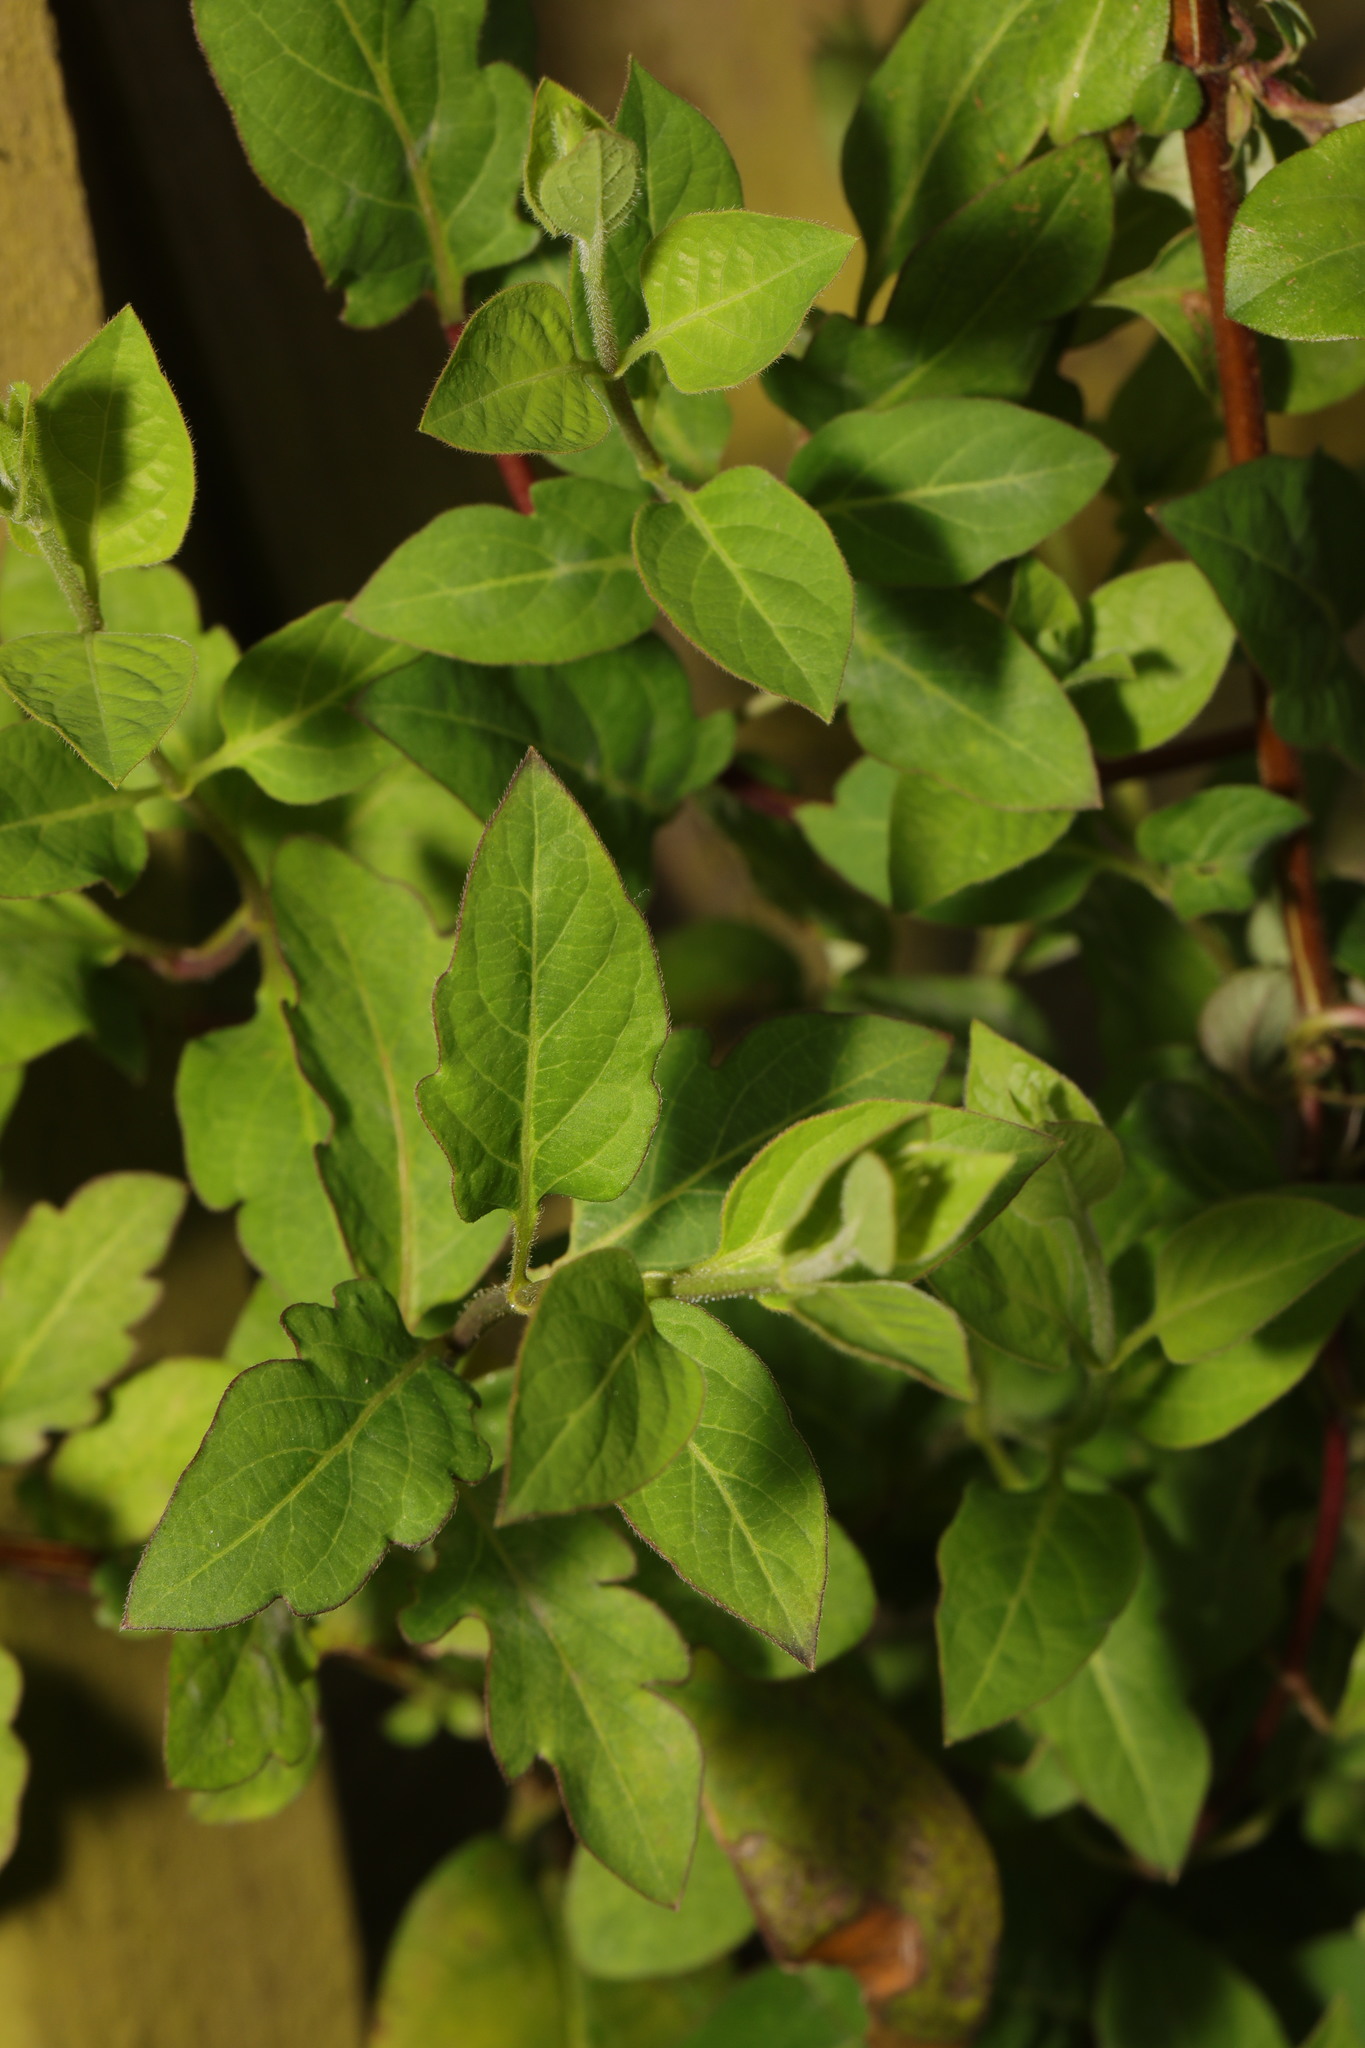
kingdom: Plantae
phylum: Tracheophyta
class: Magnoliopsida
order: Dipsacales
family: Caprifoliaceae
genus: Lonicera
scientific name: Lonicera japonica
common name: Japanese honeysuckle
